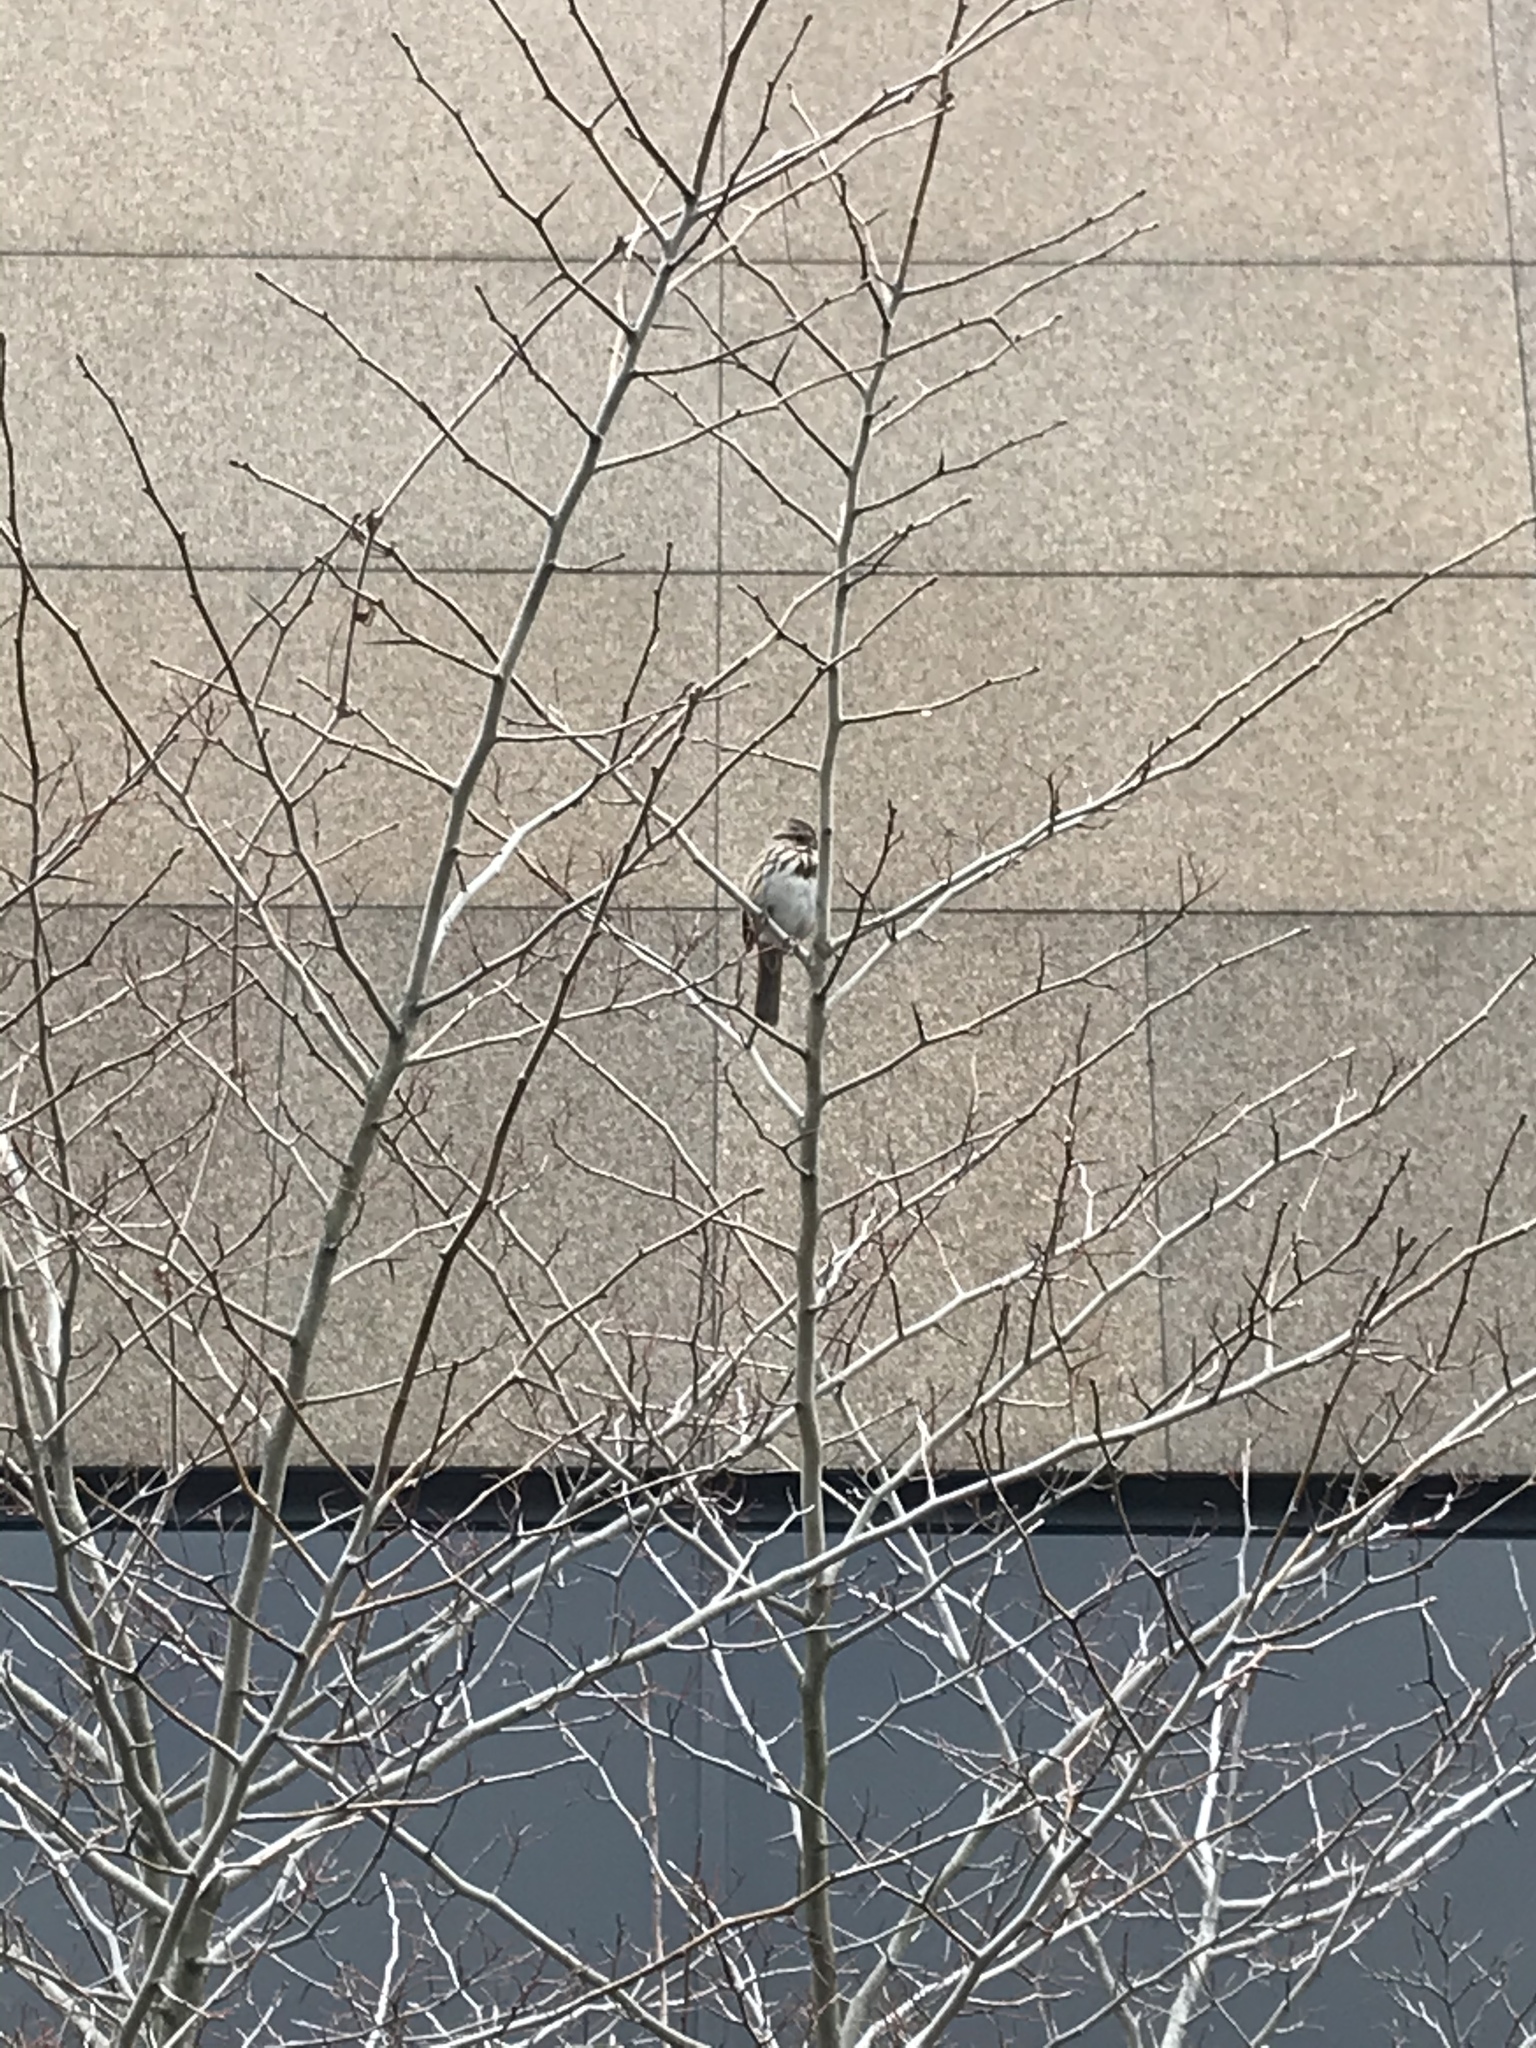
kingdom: Animalia
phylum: Chordata
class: Aves
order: Passeriformes
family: Passerellidae
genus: Melospiza
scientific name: Melospiza melodia
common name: Song sparrow
